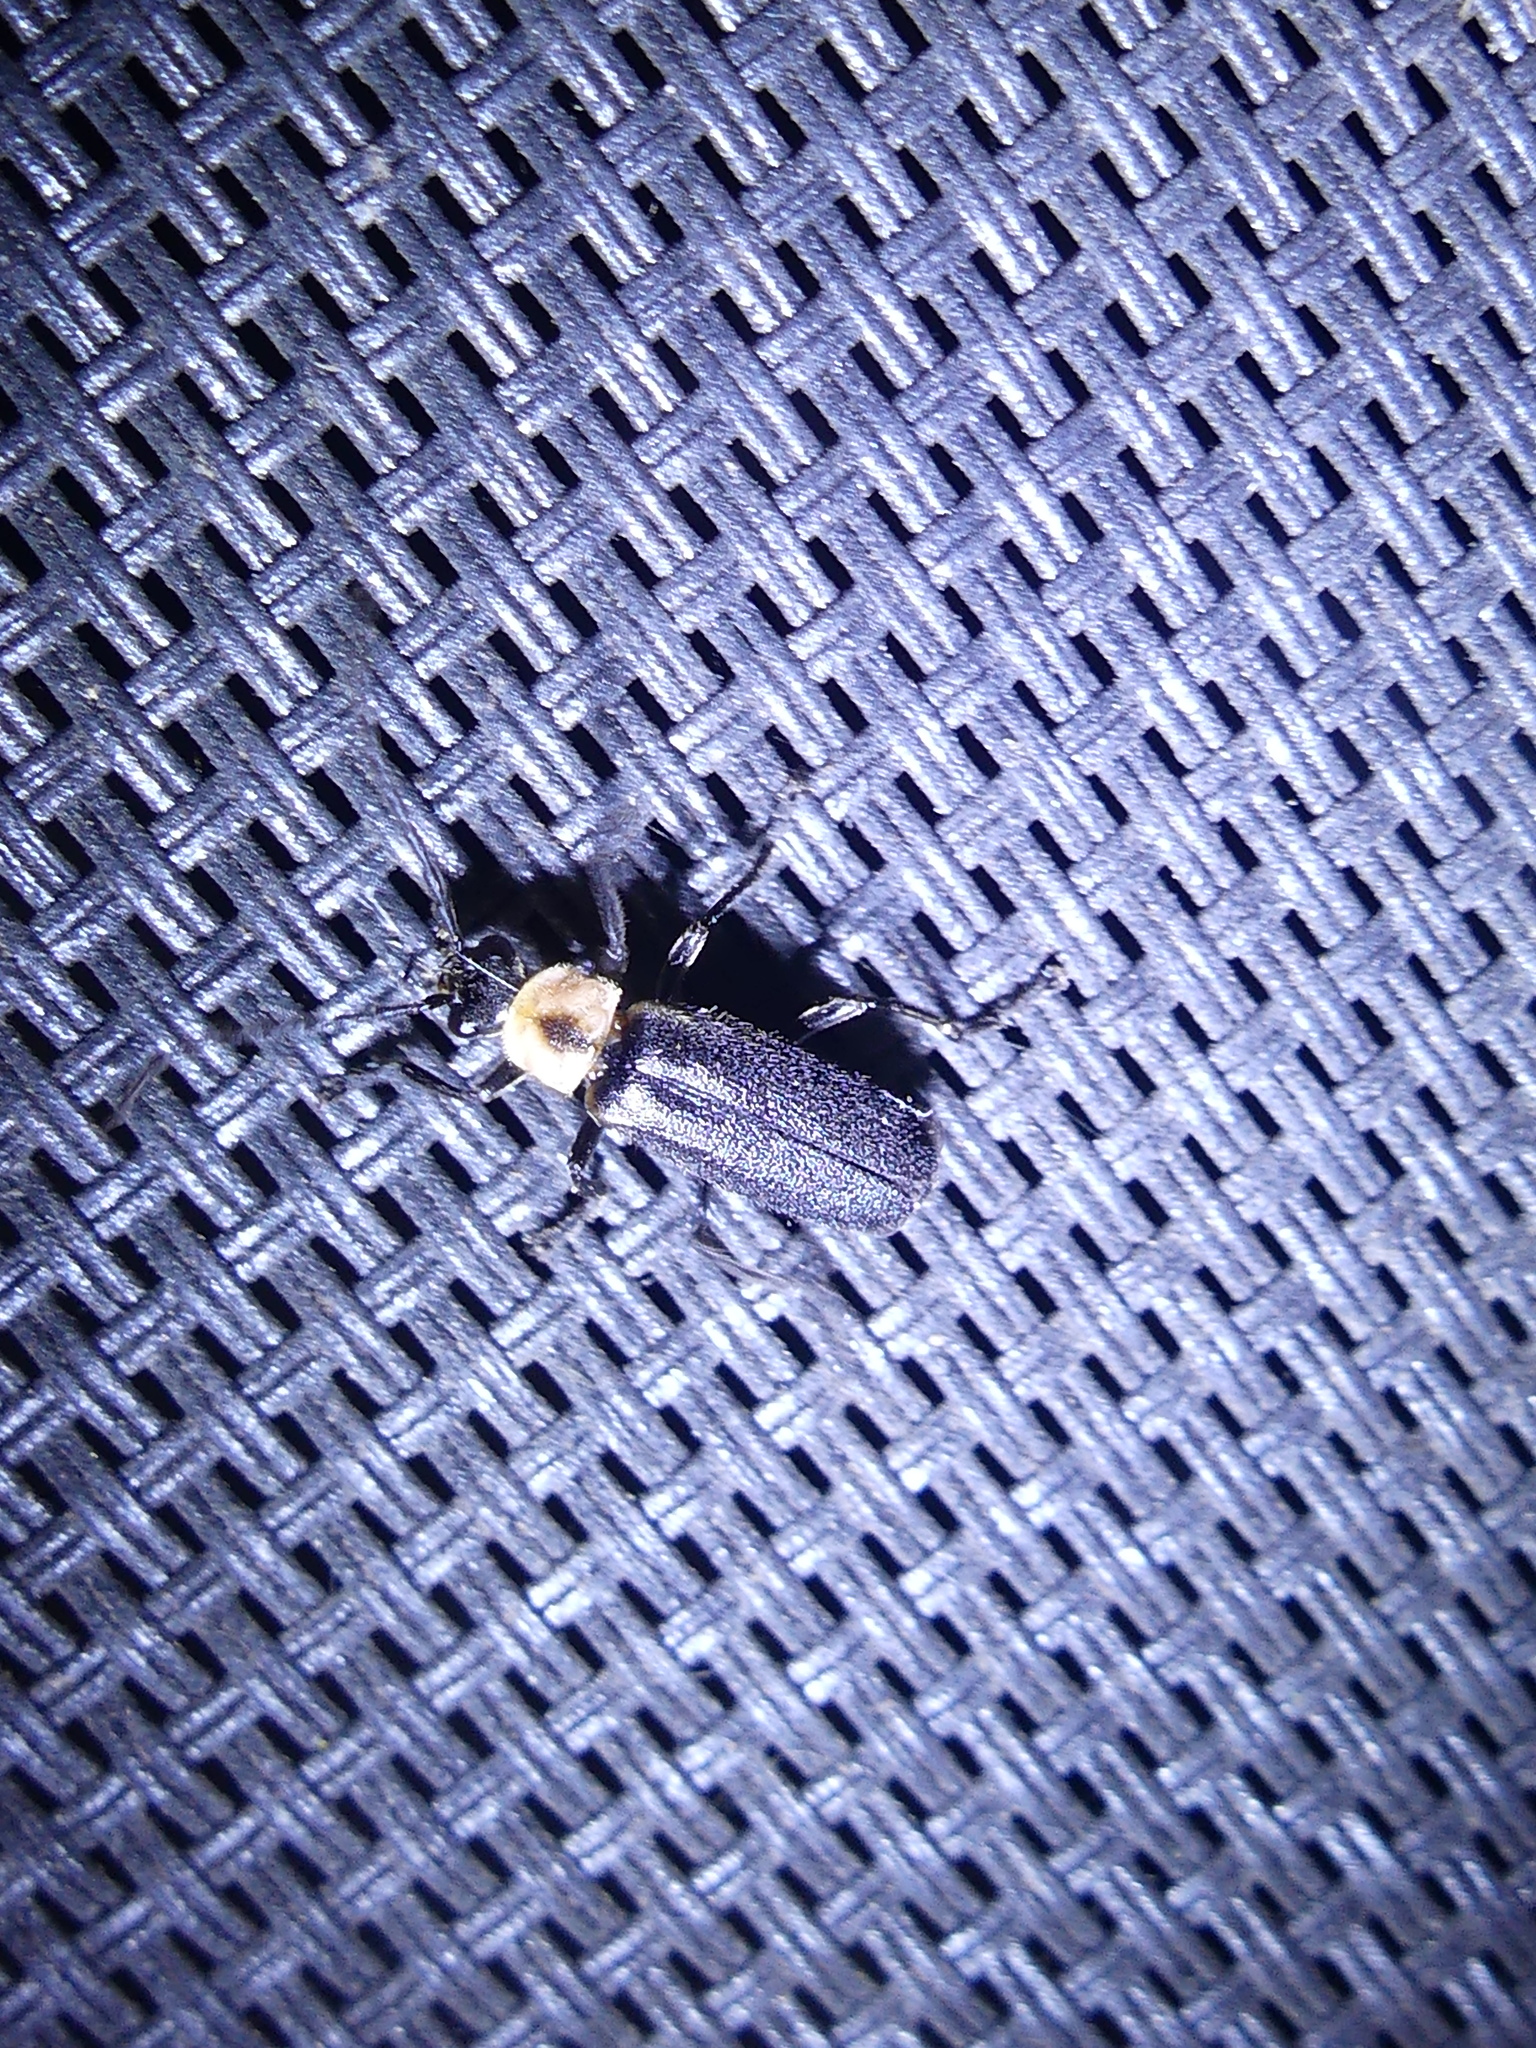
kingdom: Animalia
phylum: Arthropoda
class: Insecta
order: Coleoptera
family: Cantharidae
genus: Discodon
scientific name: Discodon planicolle
